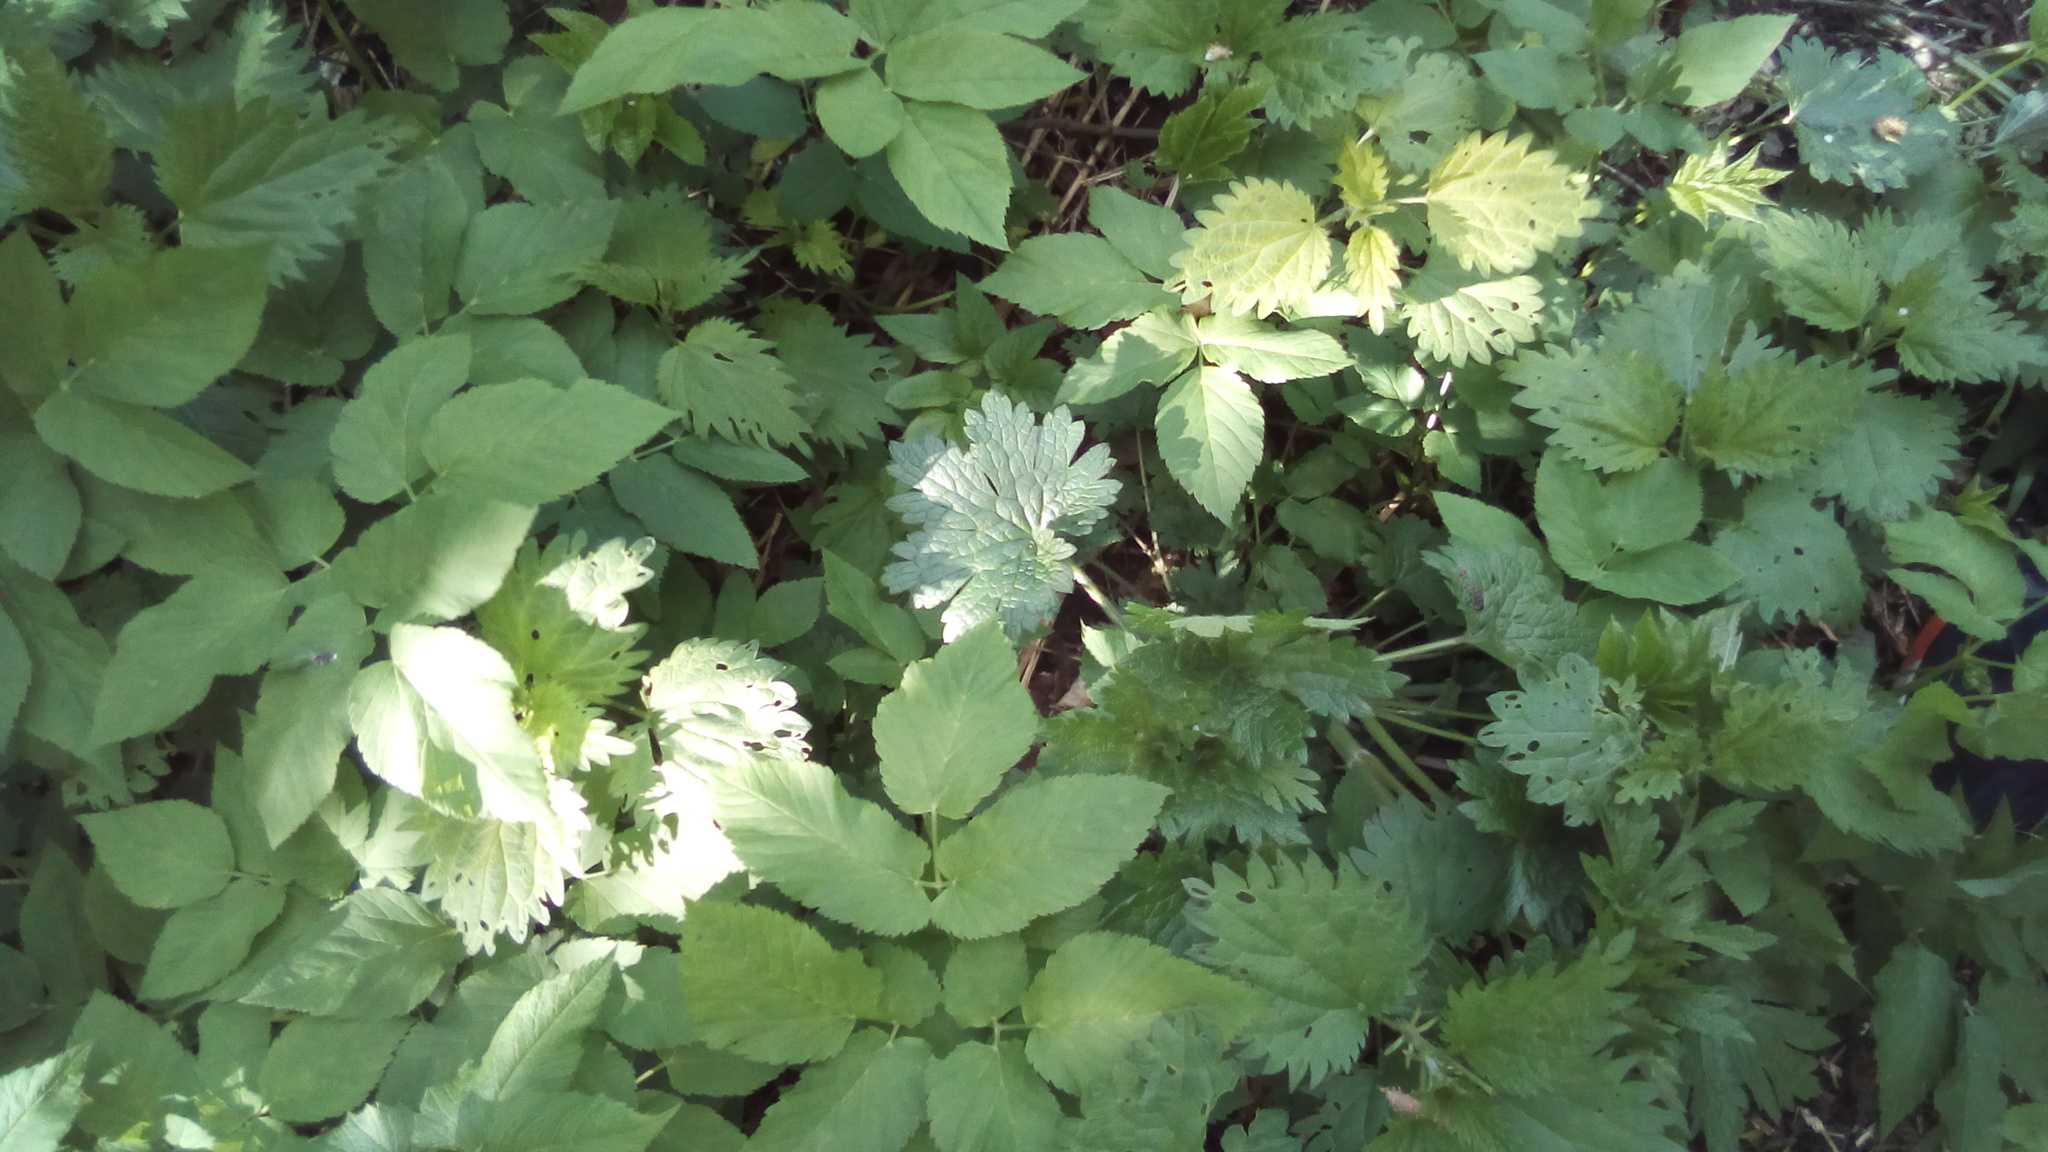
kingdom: Plantae
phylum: Tracheophyta
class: Magnoliopsida
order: Rosales
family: Urticaceae
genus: Urtica
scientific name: Urtica dioica
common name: Common nettle
